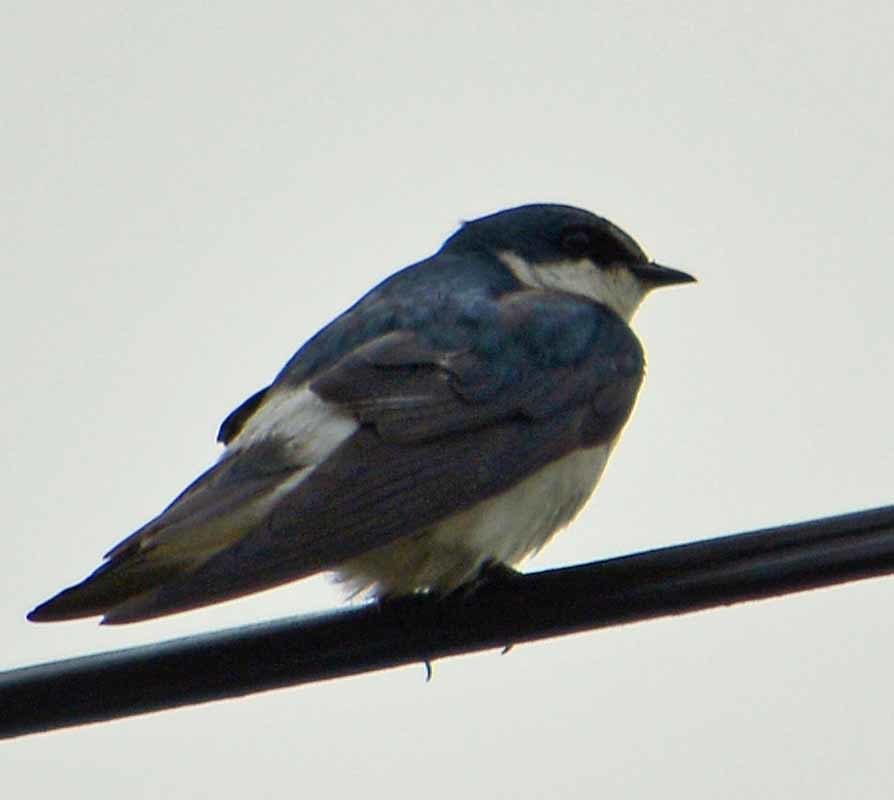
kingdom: Animalia
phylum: Chordata
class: Aves
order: Passeriformes
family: Hirundinidae
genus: Tachycineta
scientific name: Tachycineta albilinea
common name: Mangrove swallow
